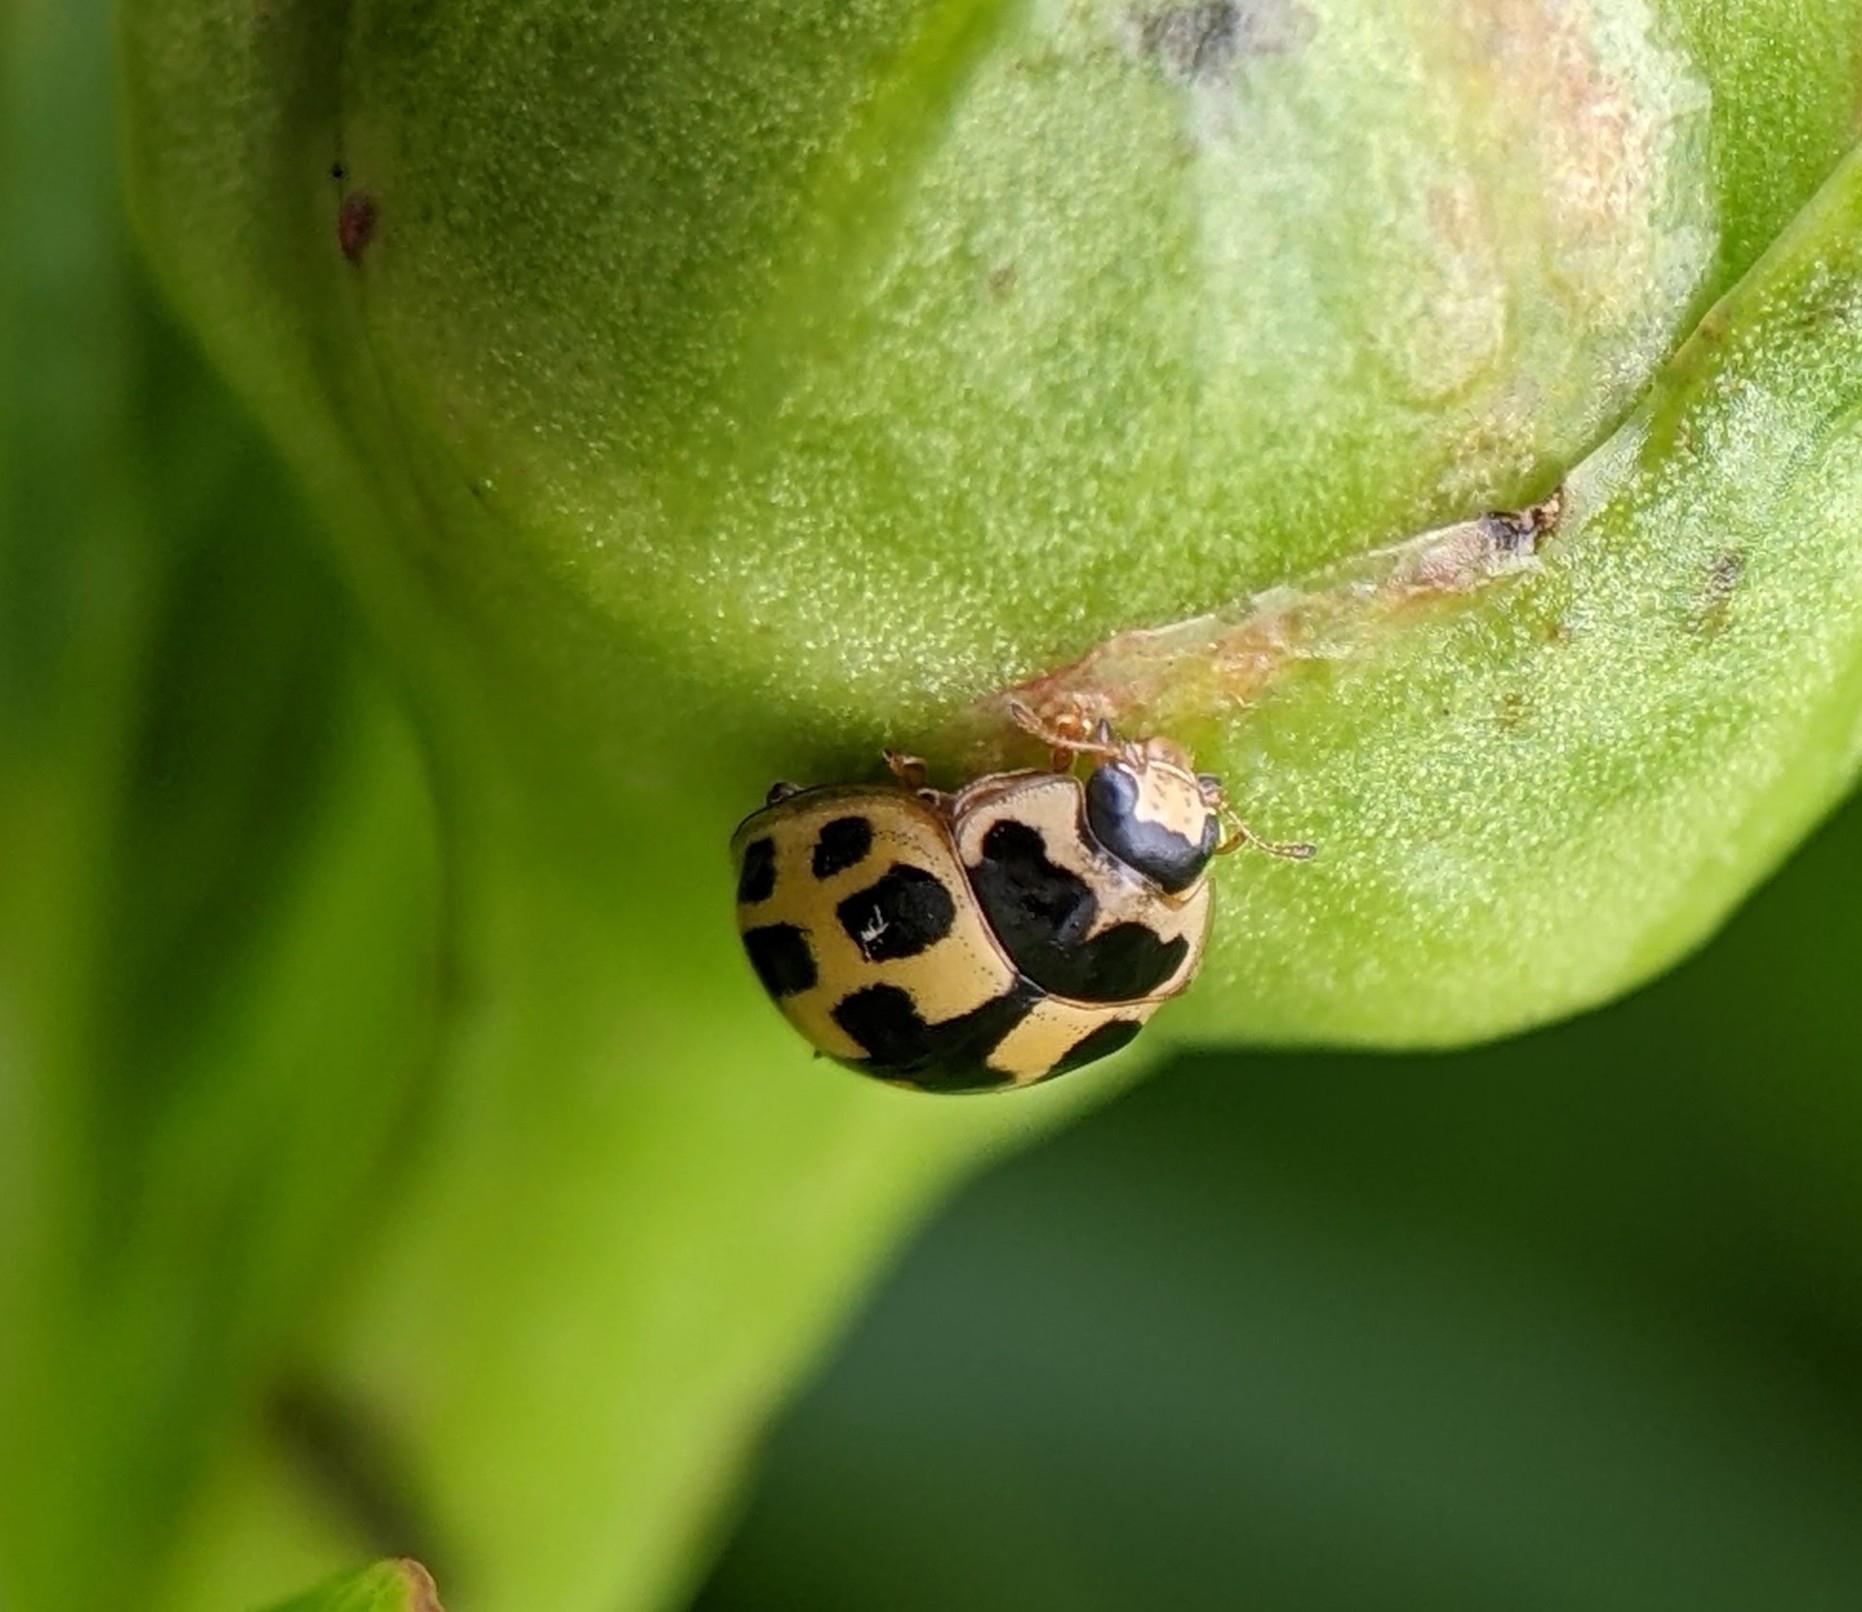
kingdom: Animalia
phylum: Arthropoda
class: Insecta
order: Coleoptera
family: Coccinellidae
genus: Propylaea
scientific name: Propylaea quatuordecimpunctata
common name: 14-spotted ladybird beetle
